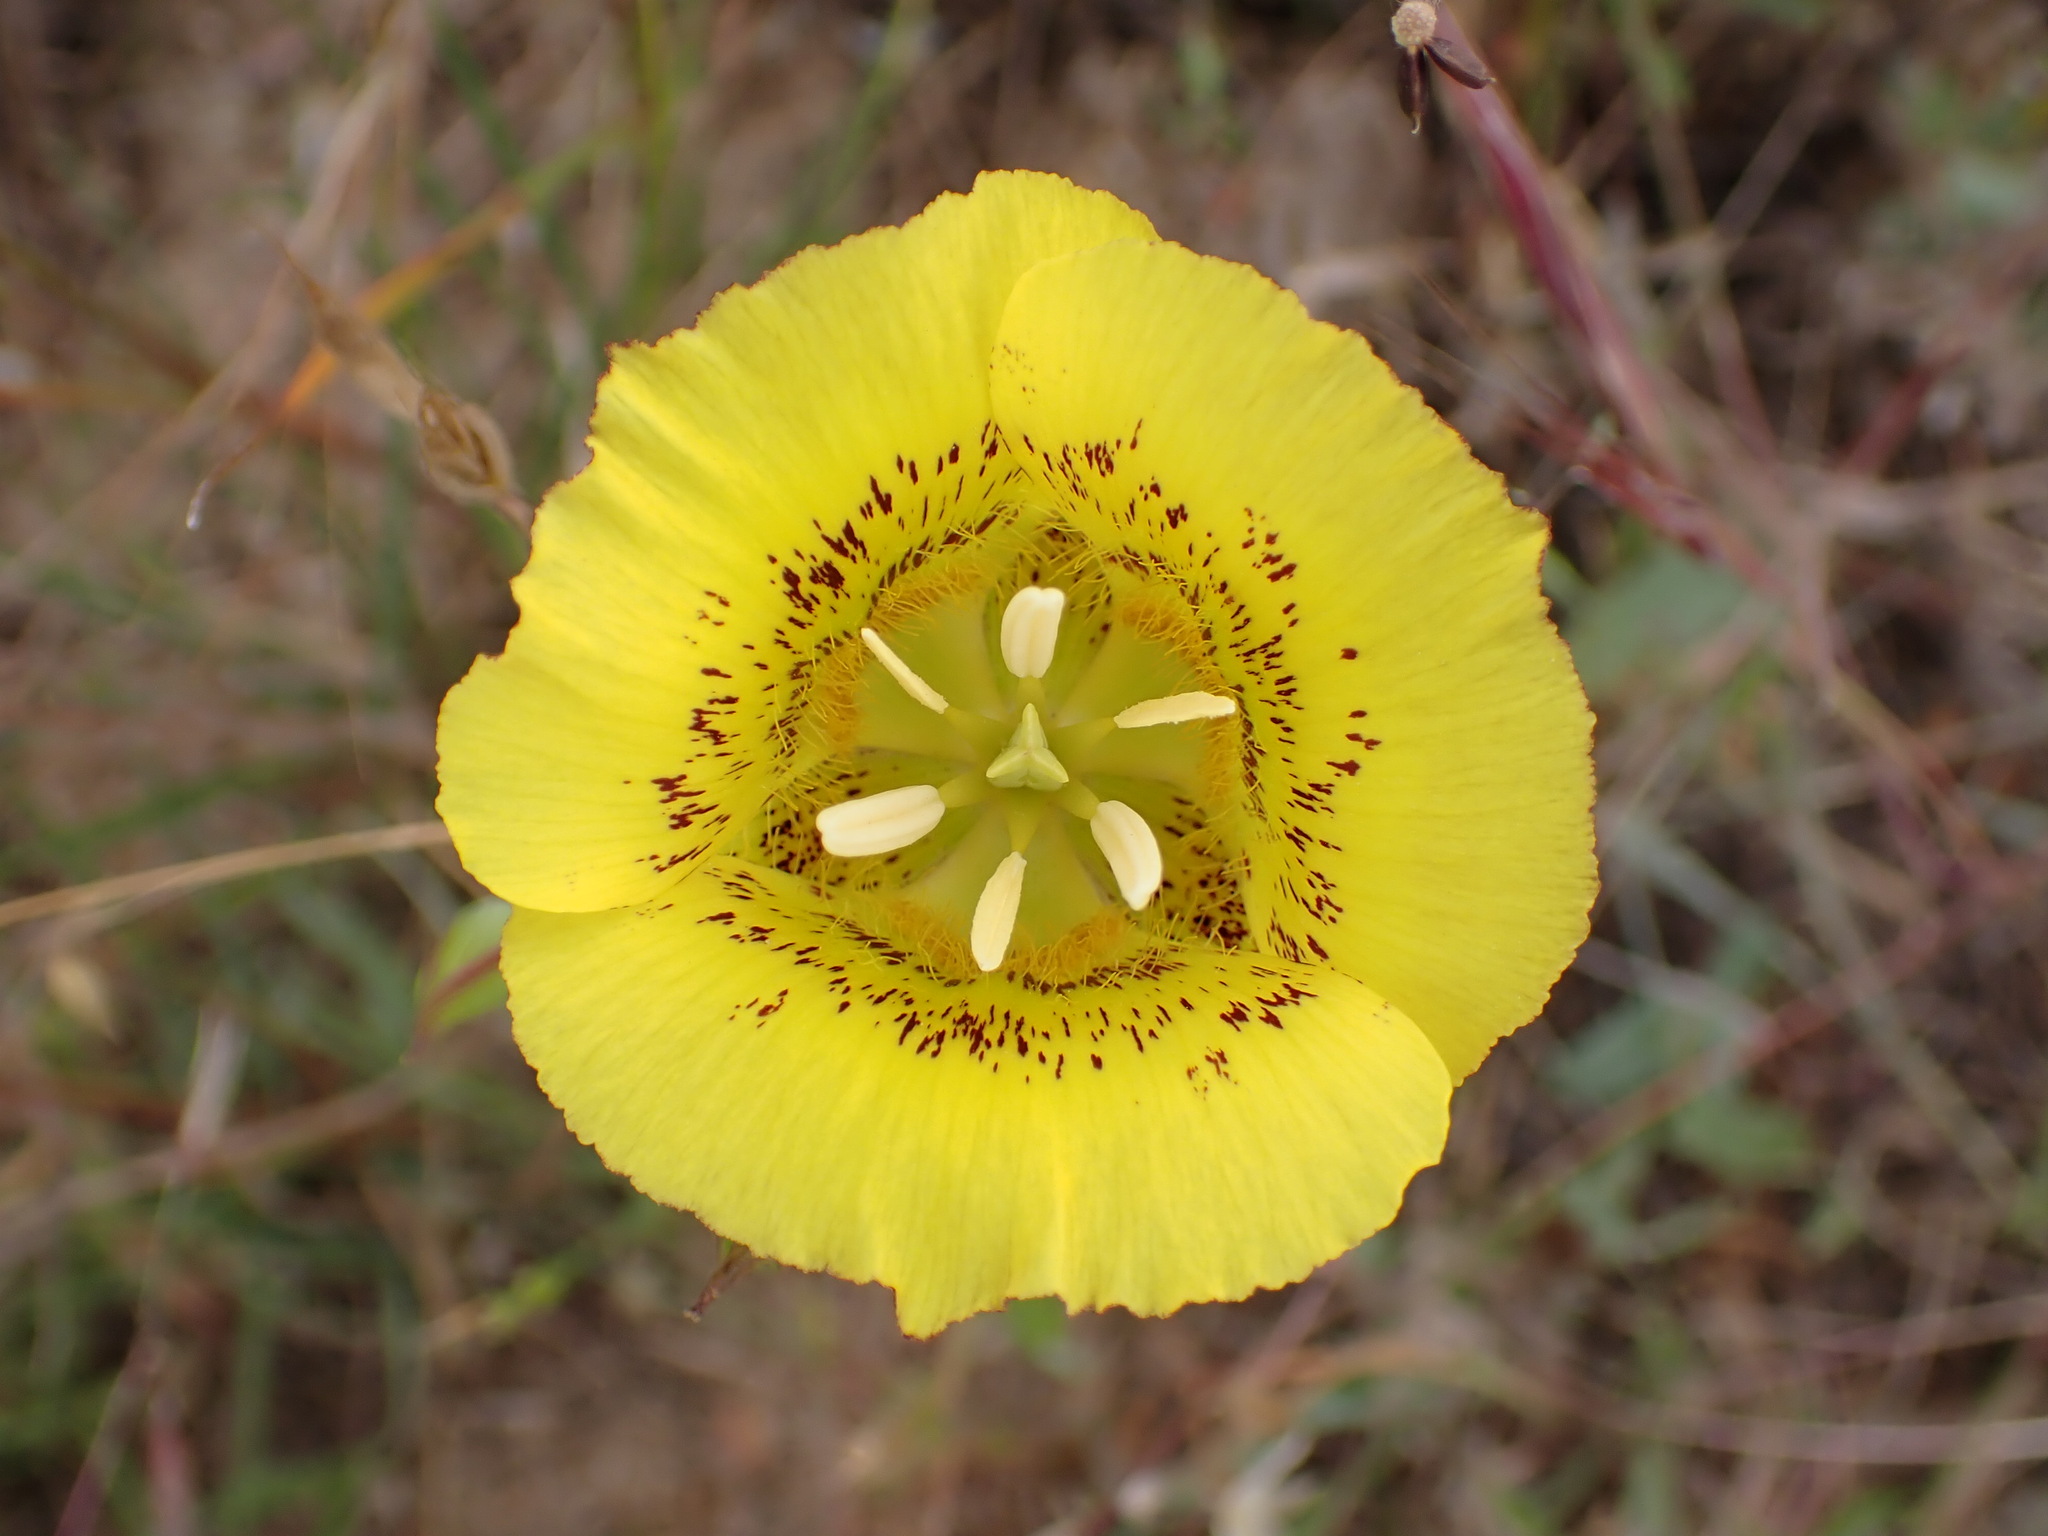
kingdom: Plantae
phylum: Tracheophyta
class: Liliopsida
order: Liliales
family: Liliaceae
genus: Calochortus
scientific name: Calochortus luteus
